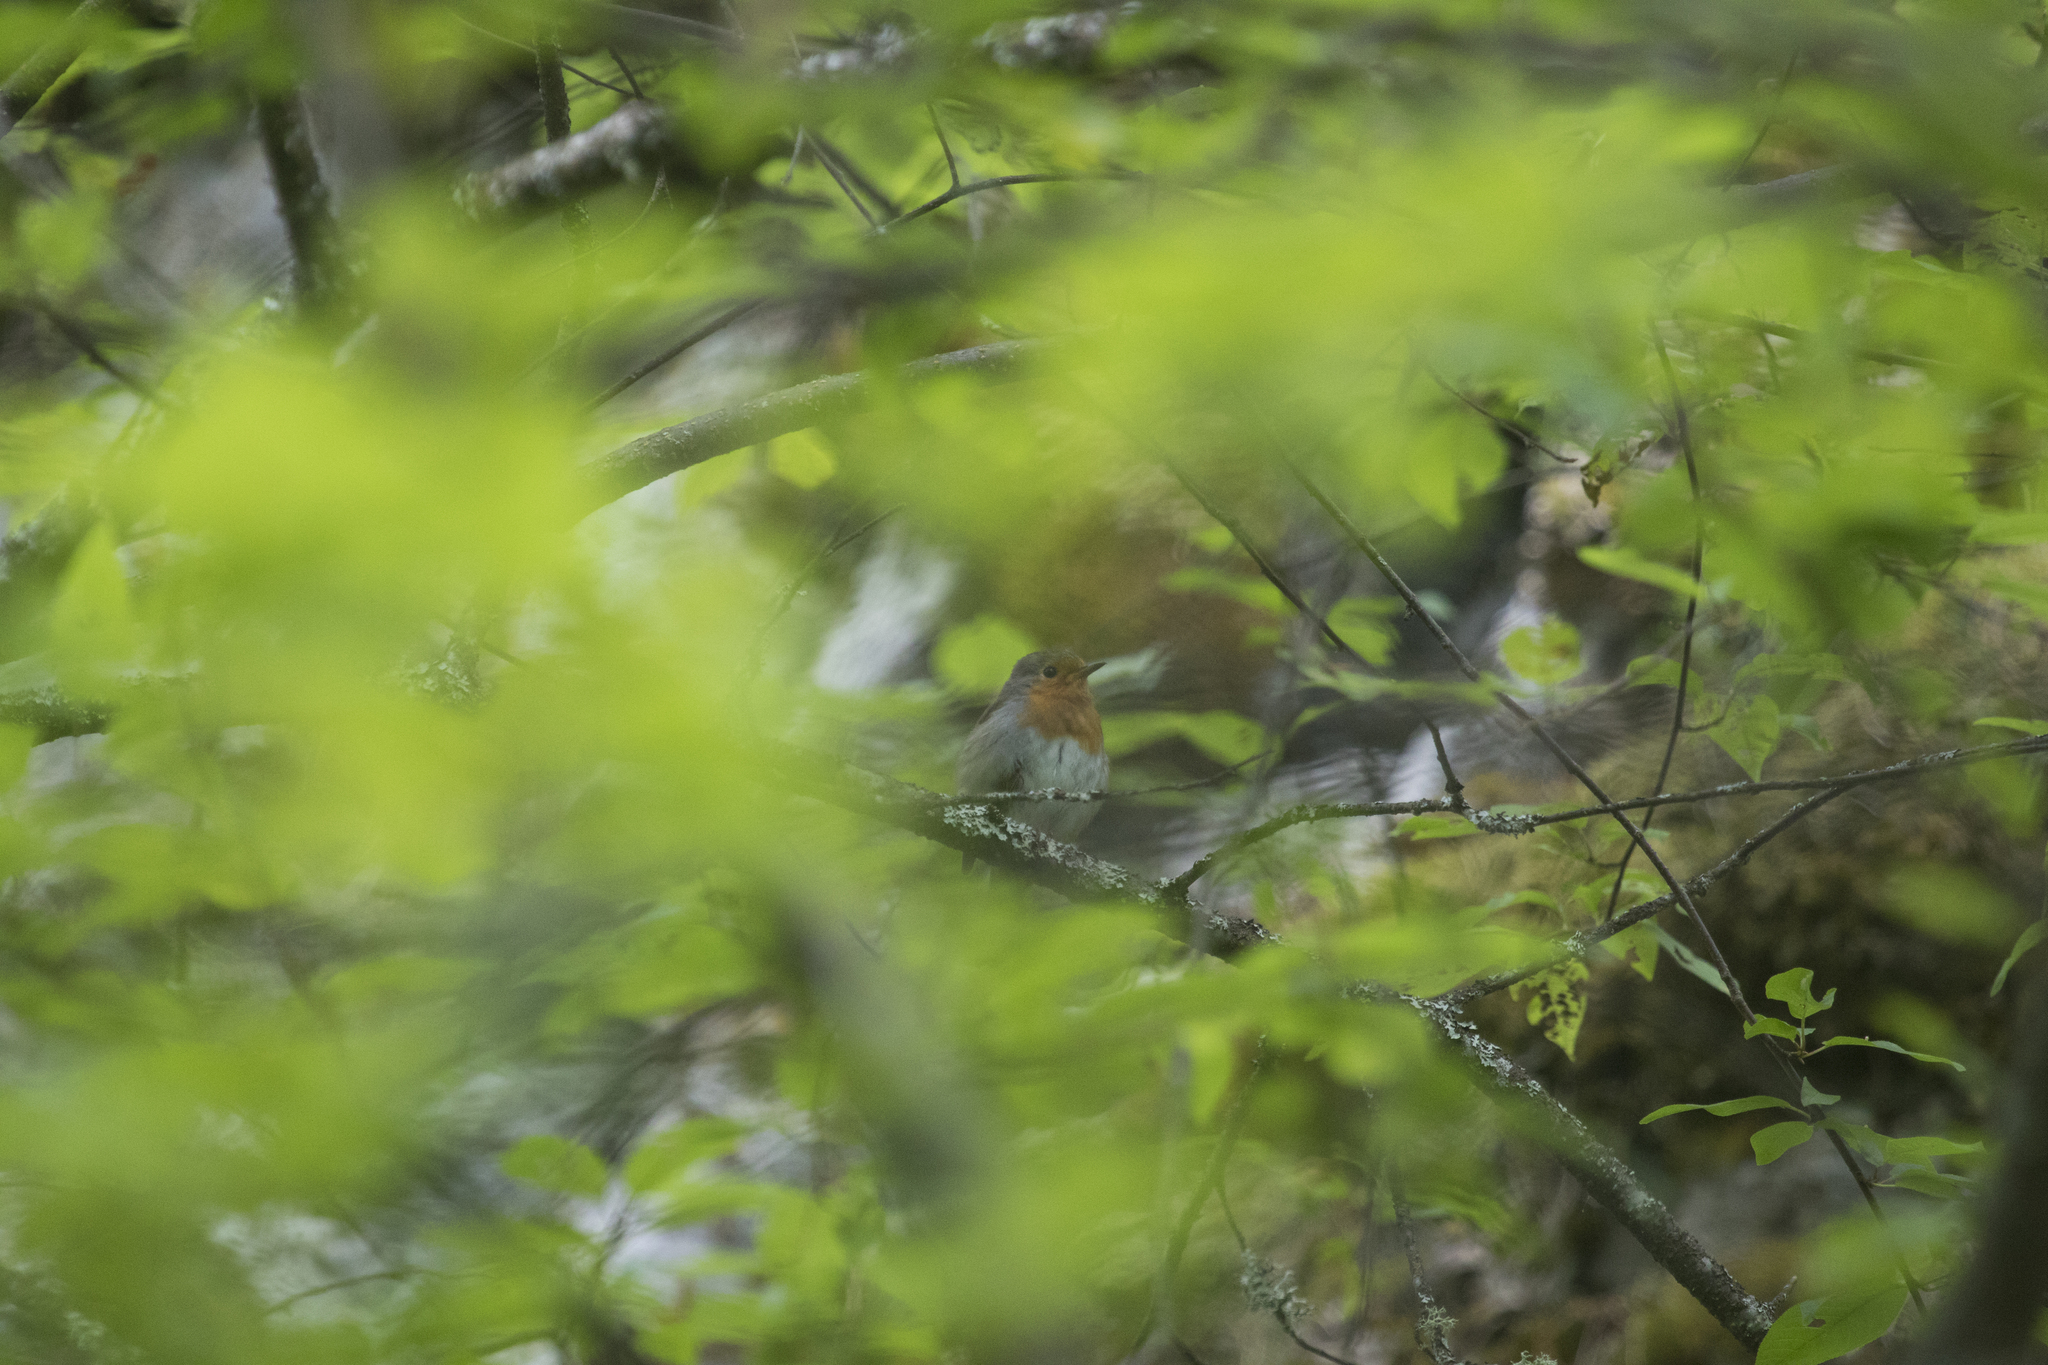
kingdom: Animalia
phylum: Chordata
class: Aves
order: Passeriformes
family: Muscicapidae
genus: Erithacus
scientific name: Erithacus rubecula
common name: European robin
